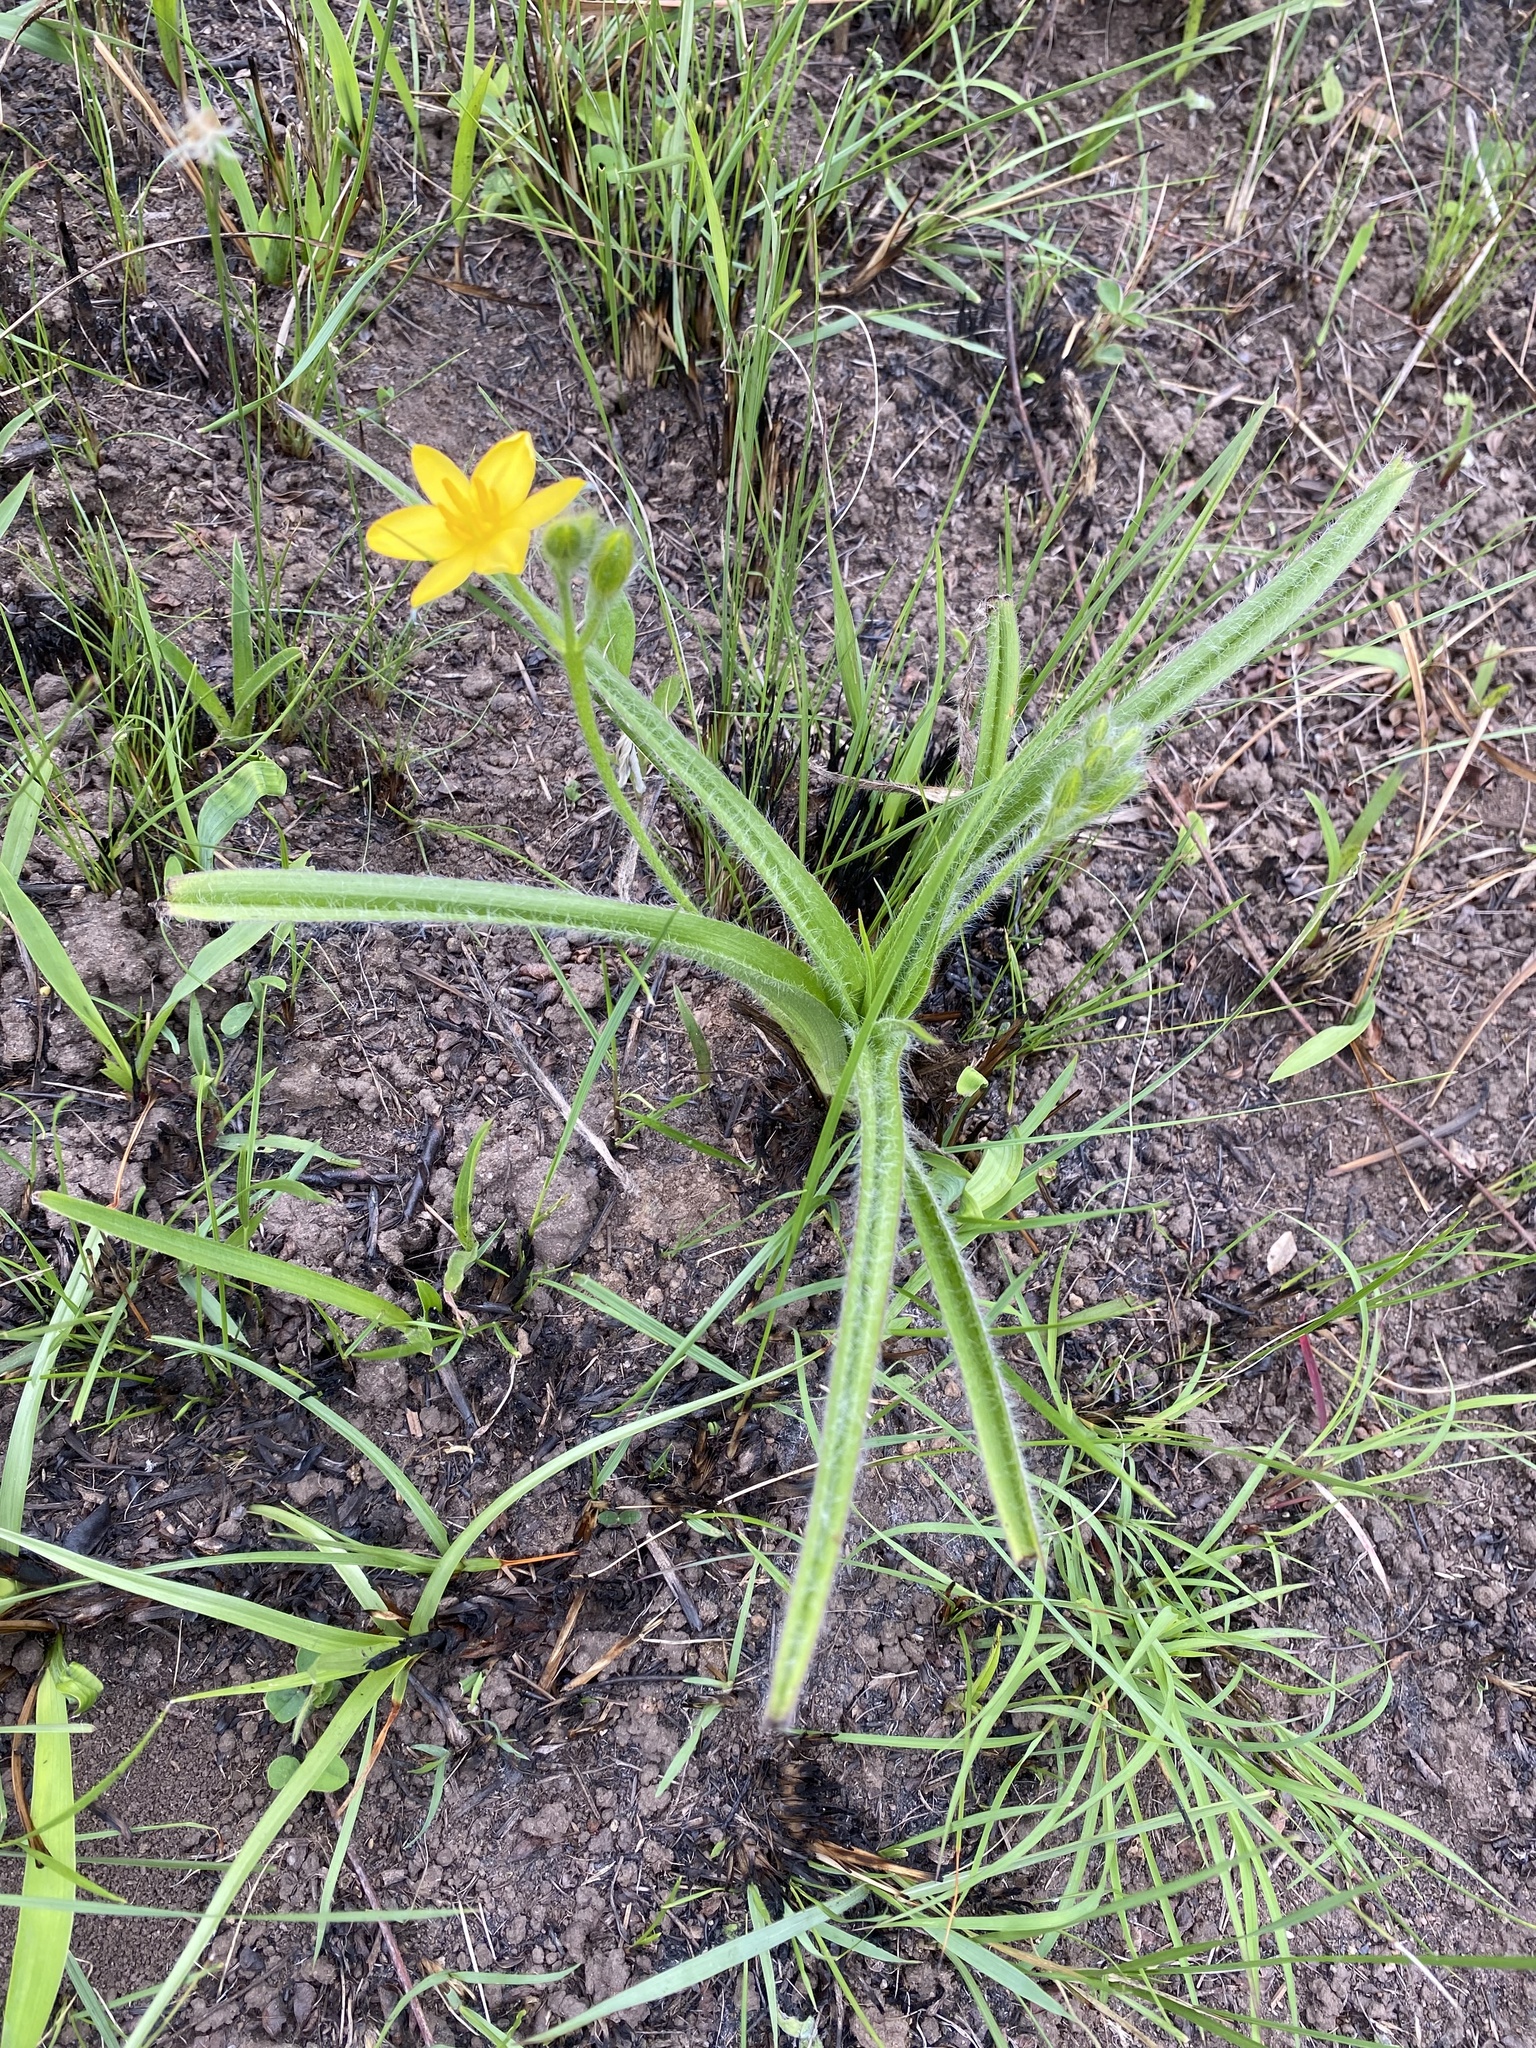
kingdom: Plantae
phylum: Tracheophyta
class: Liliopsida
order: Asparagales
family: Hypoxidaceae
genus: Hypoxis
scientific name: Hypoxis hemerocallidea
